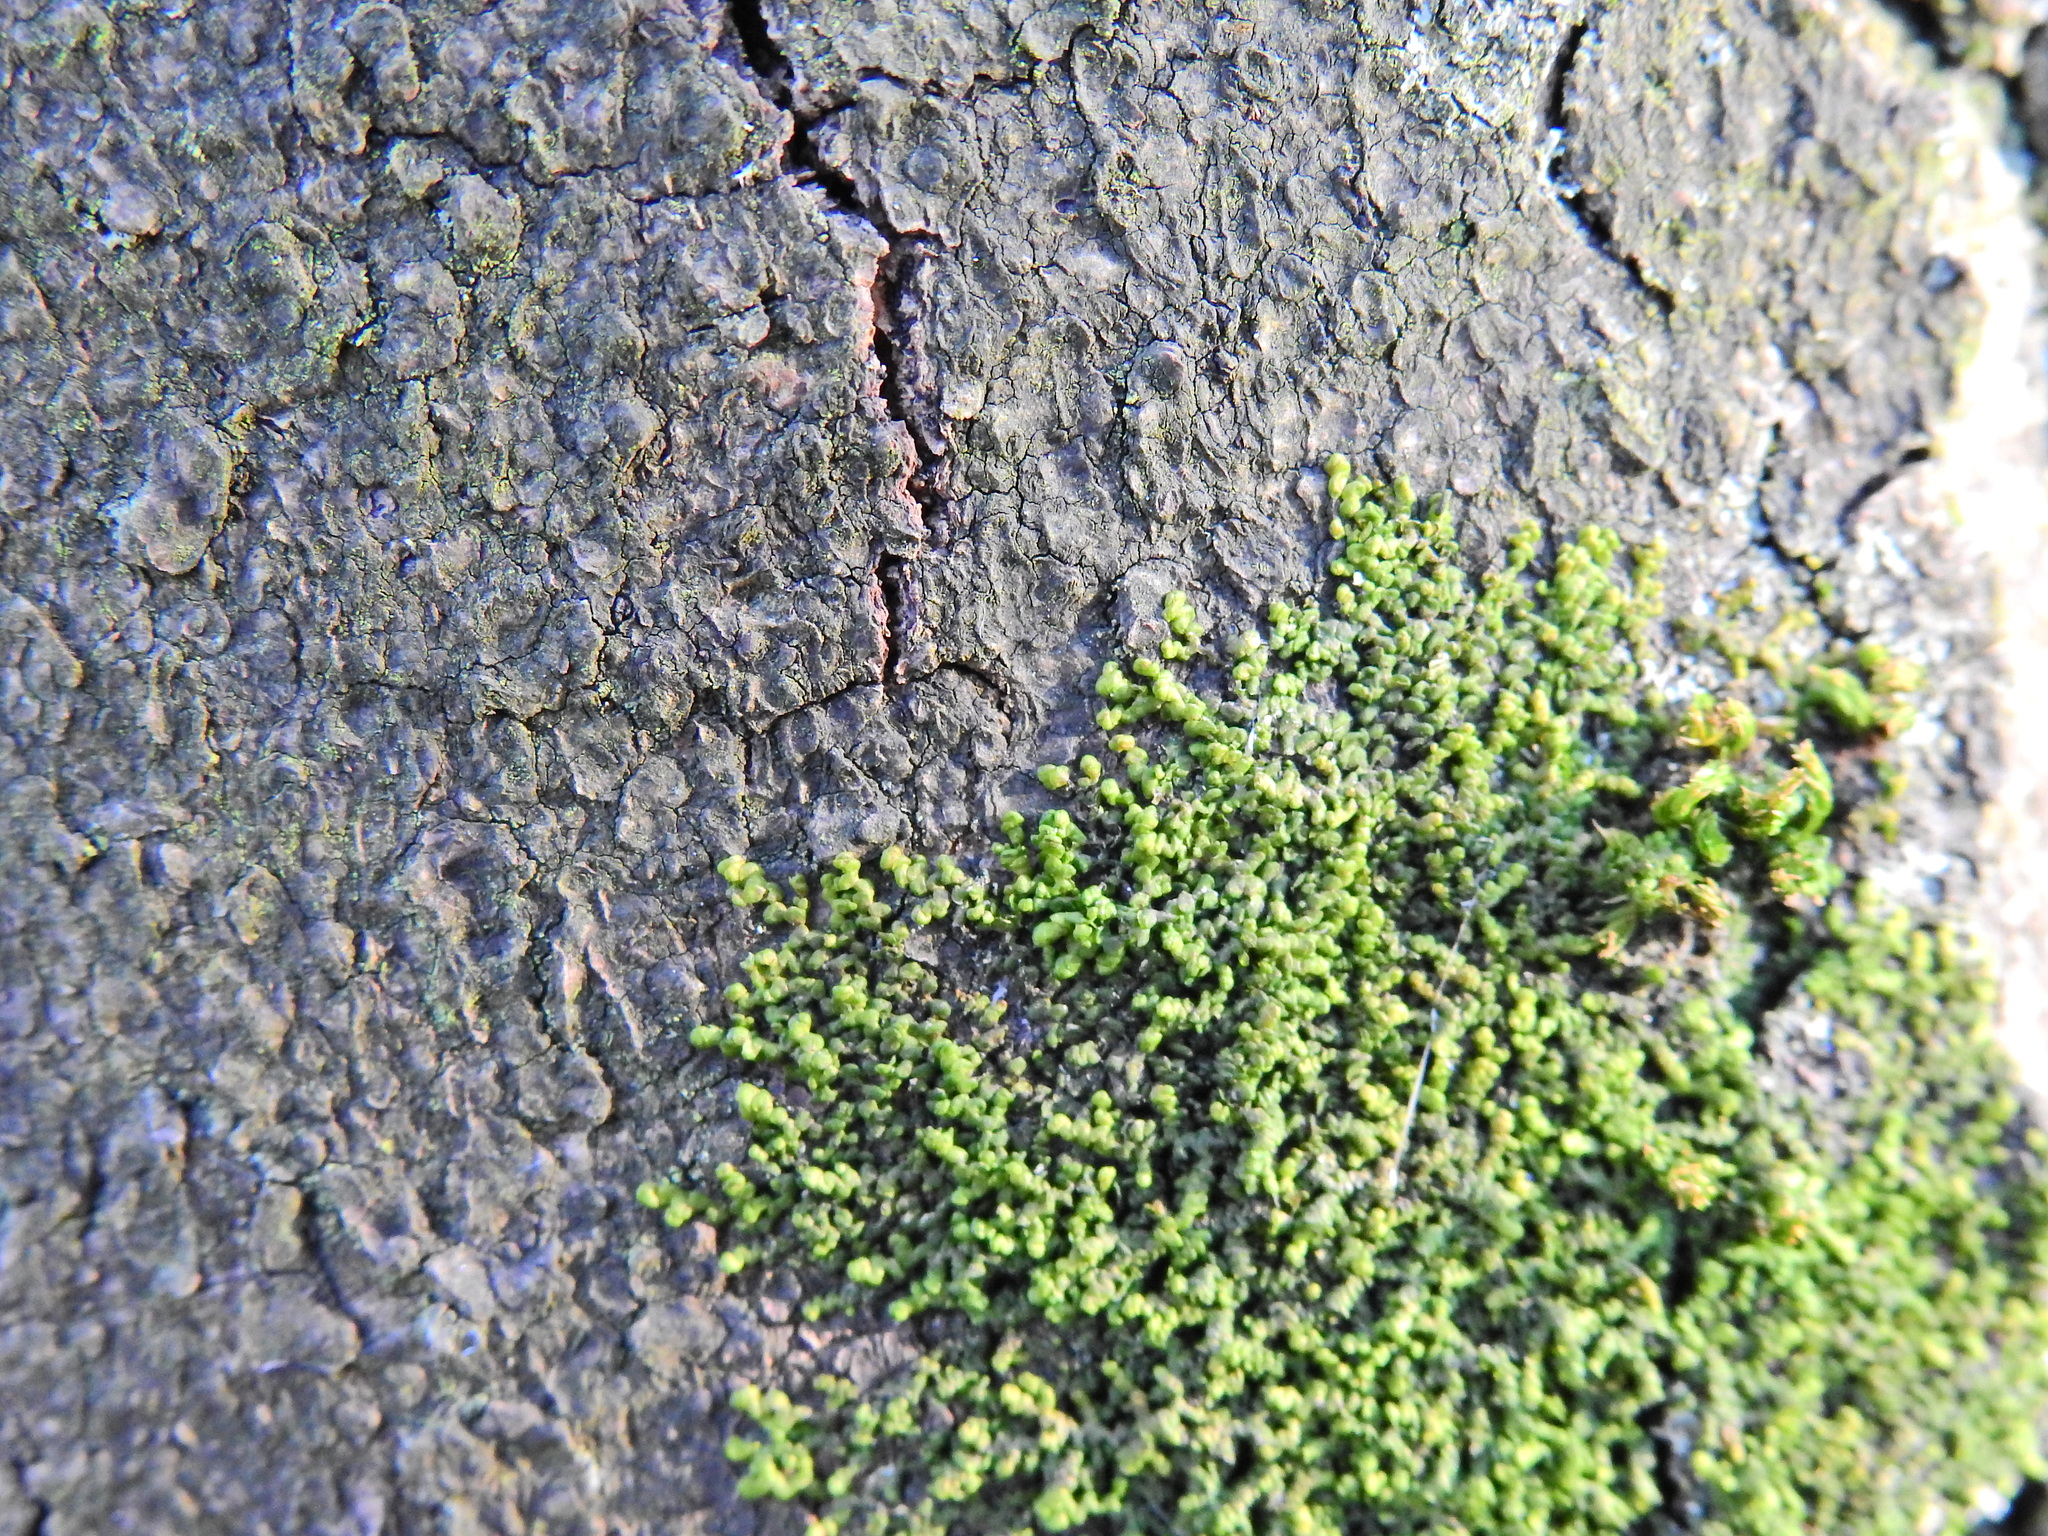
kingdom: Plantae
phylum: Marchantiophyta
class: Jungermanniopsida
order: Porellales
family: Frullaniaceae
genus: Frullania
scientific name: Frullania dilatata
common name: Dilated scalewort
